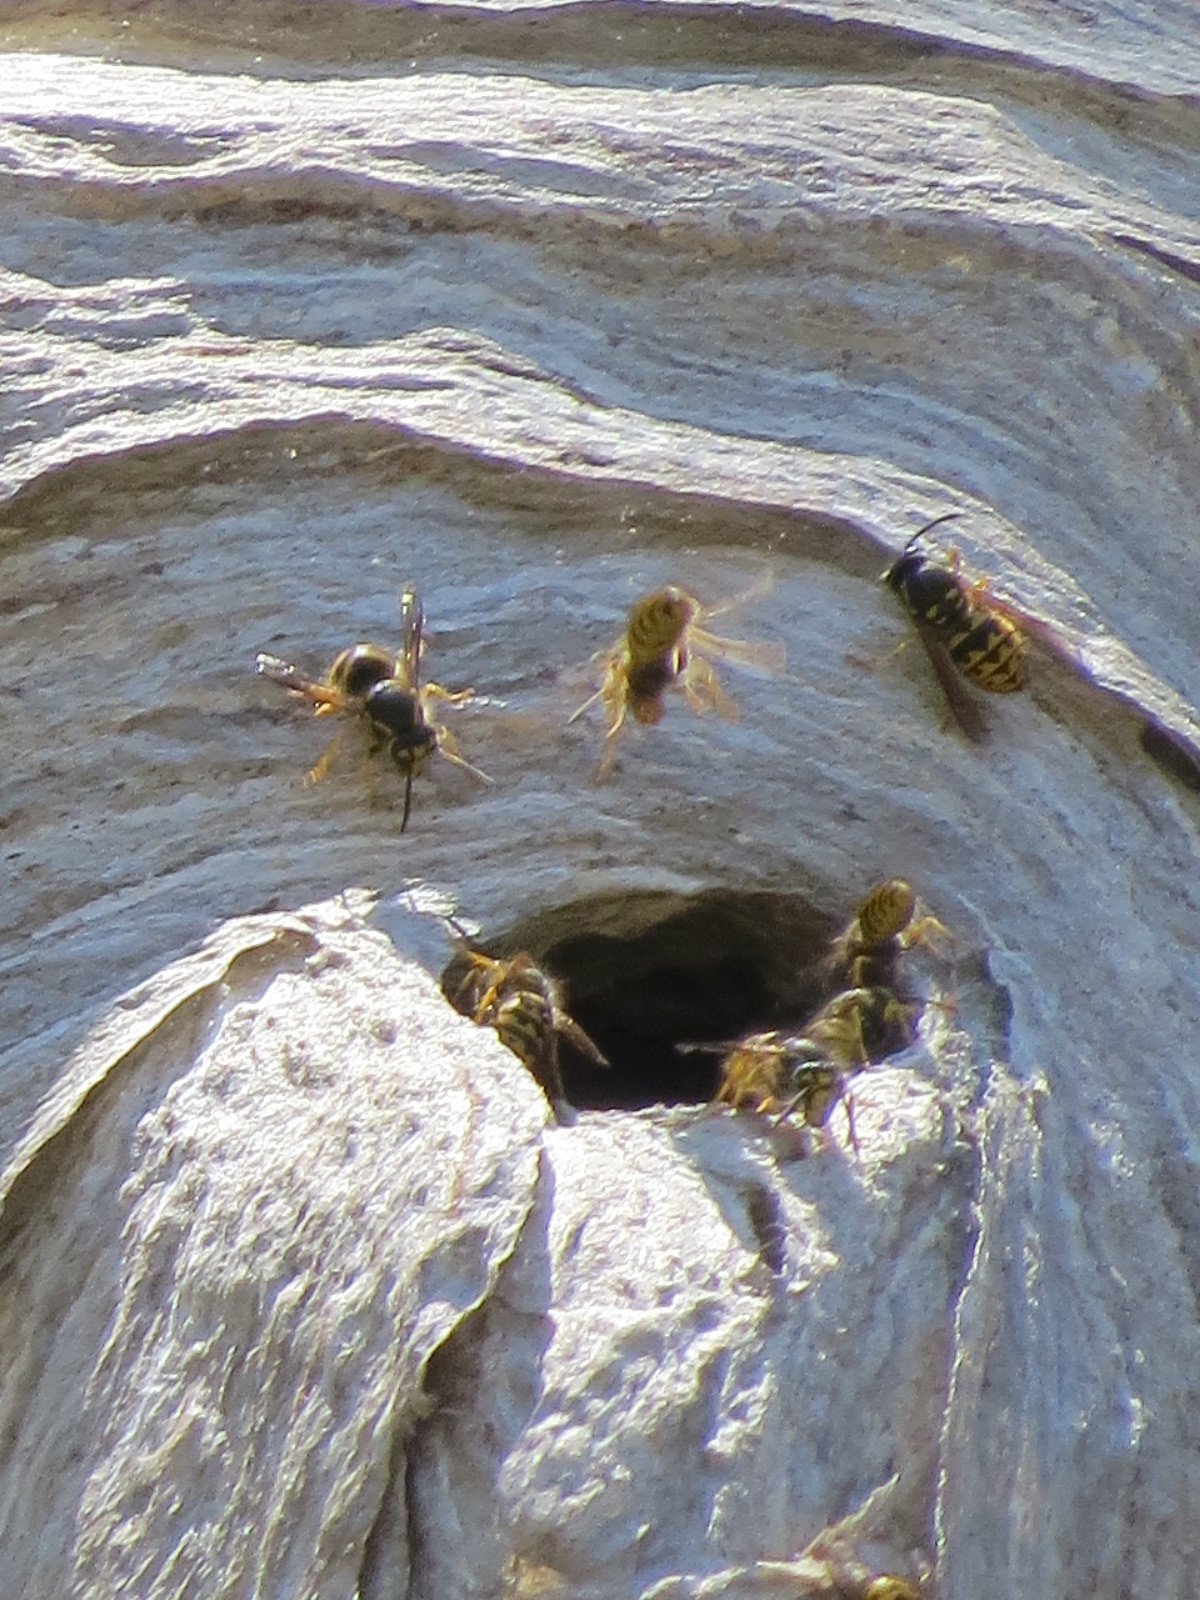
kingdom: Animalia
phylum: Arthropoda
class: Insecta
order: Hymenoptera
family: Vespidae
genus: Dolichovespula
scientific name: Dolichovespula arenaria
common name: Aerial yellowjacket
